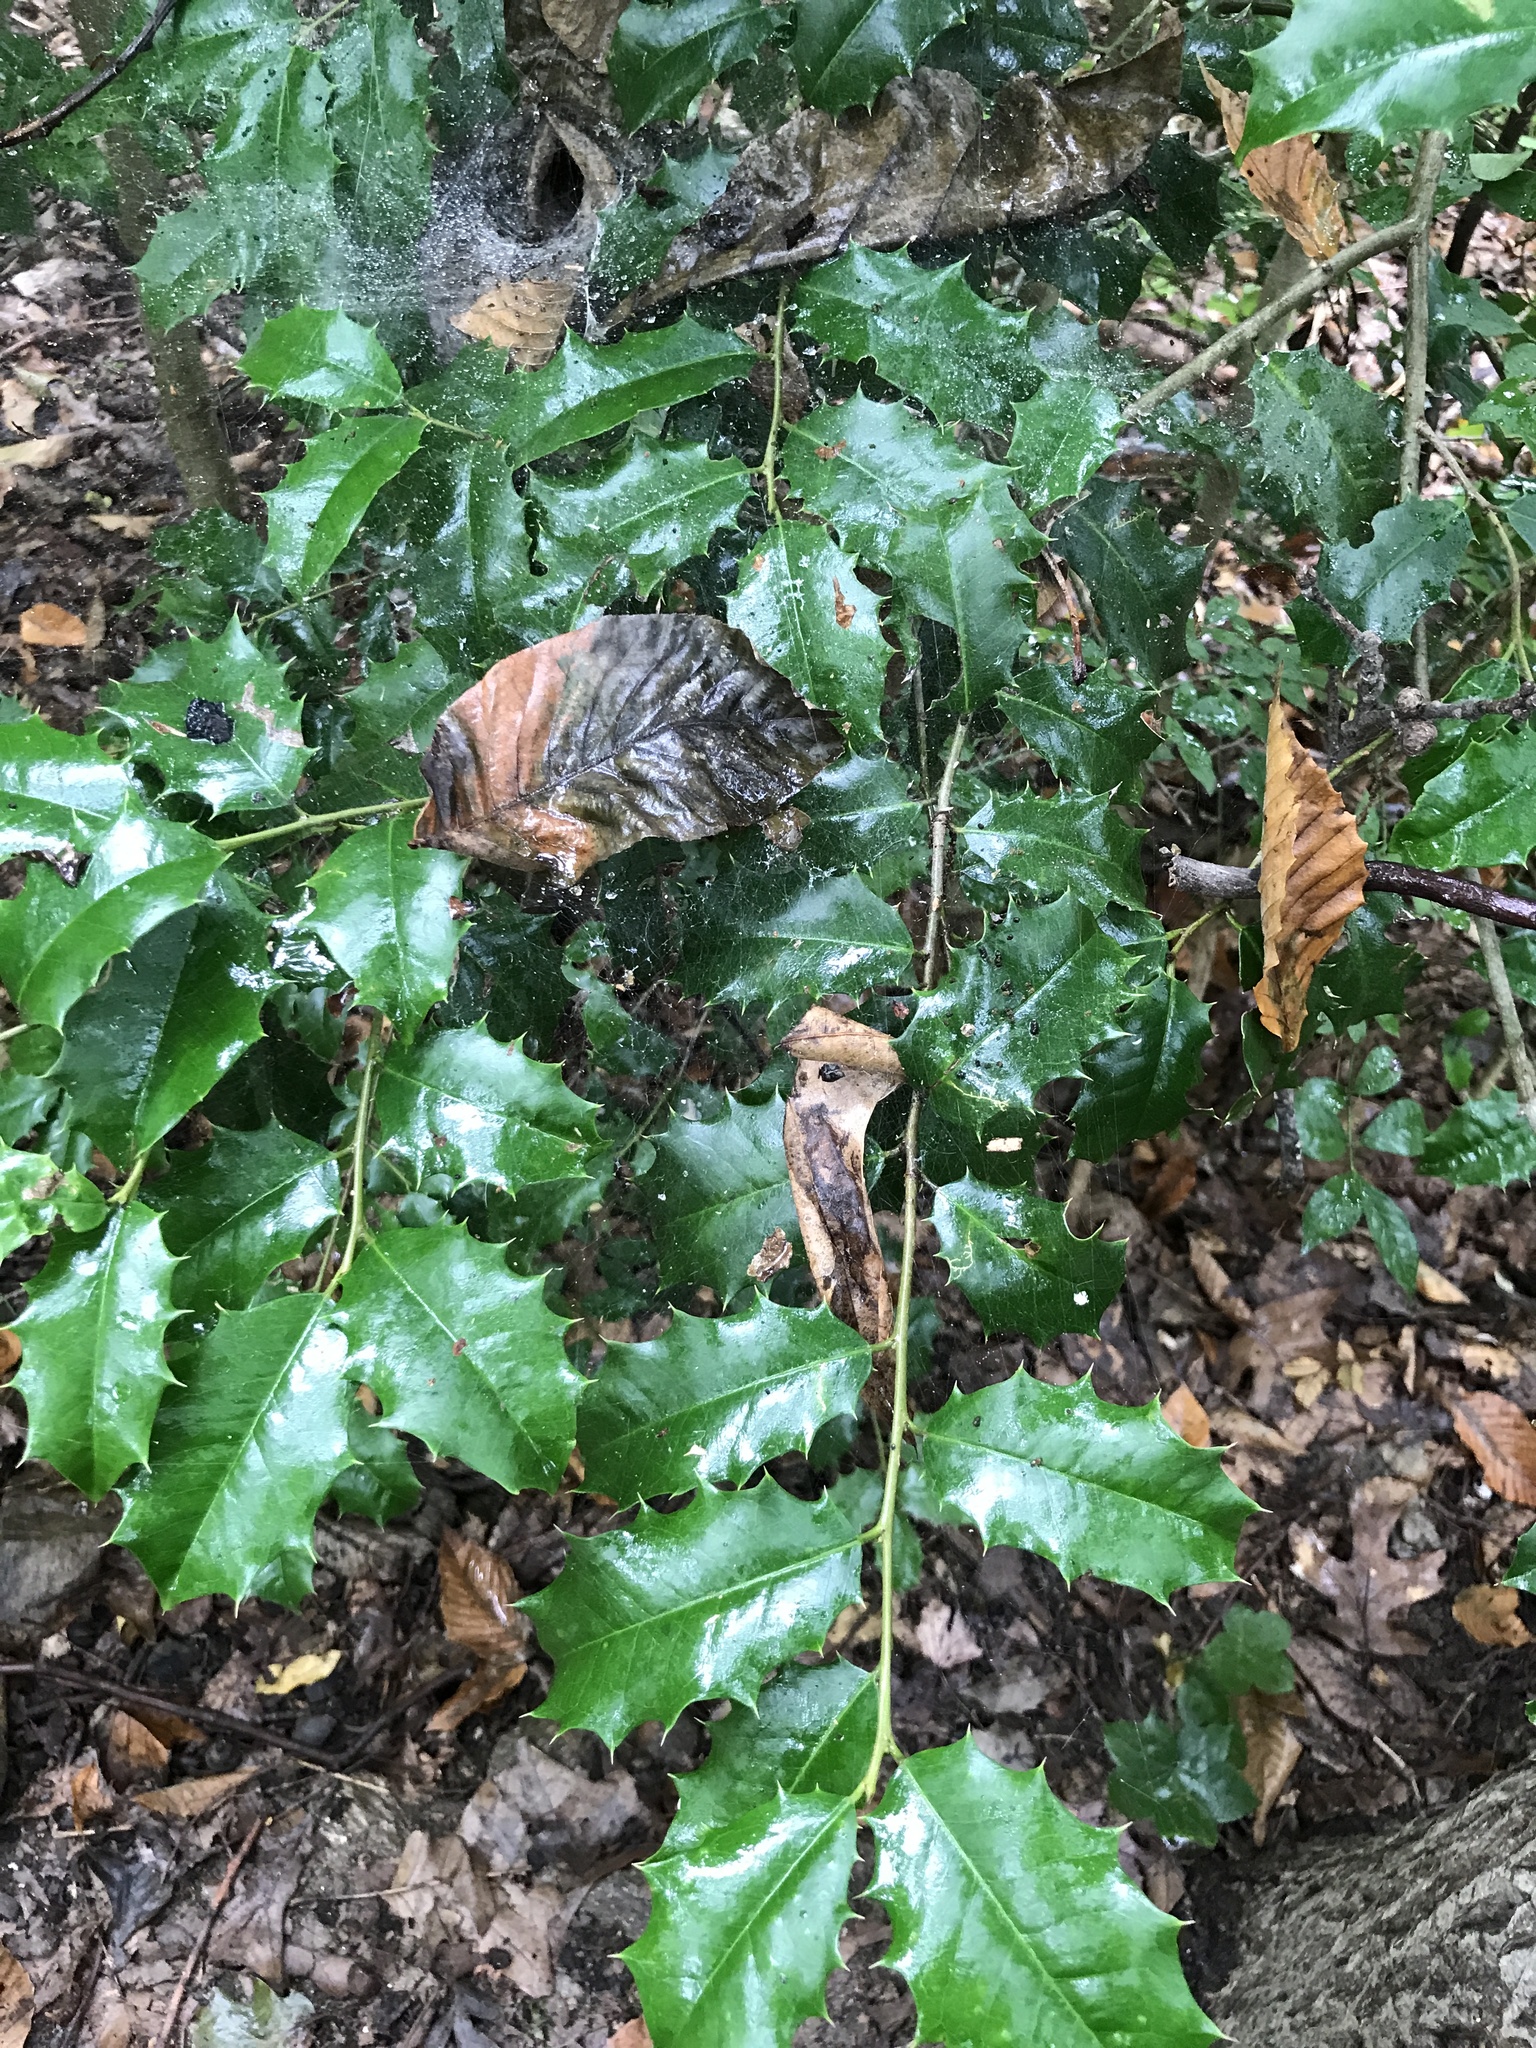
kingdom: Plantae
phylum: Tracheophyta
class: Magnoliopsida
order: Aquifoliales
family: Aquifoliaceae
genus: Ilex
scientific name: Ilex opaca
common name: American holly
